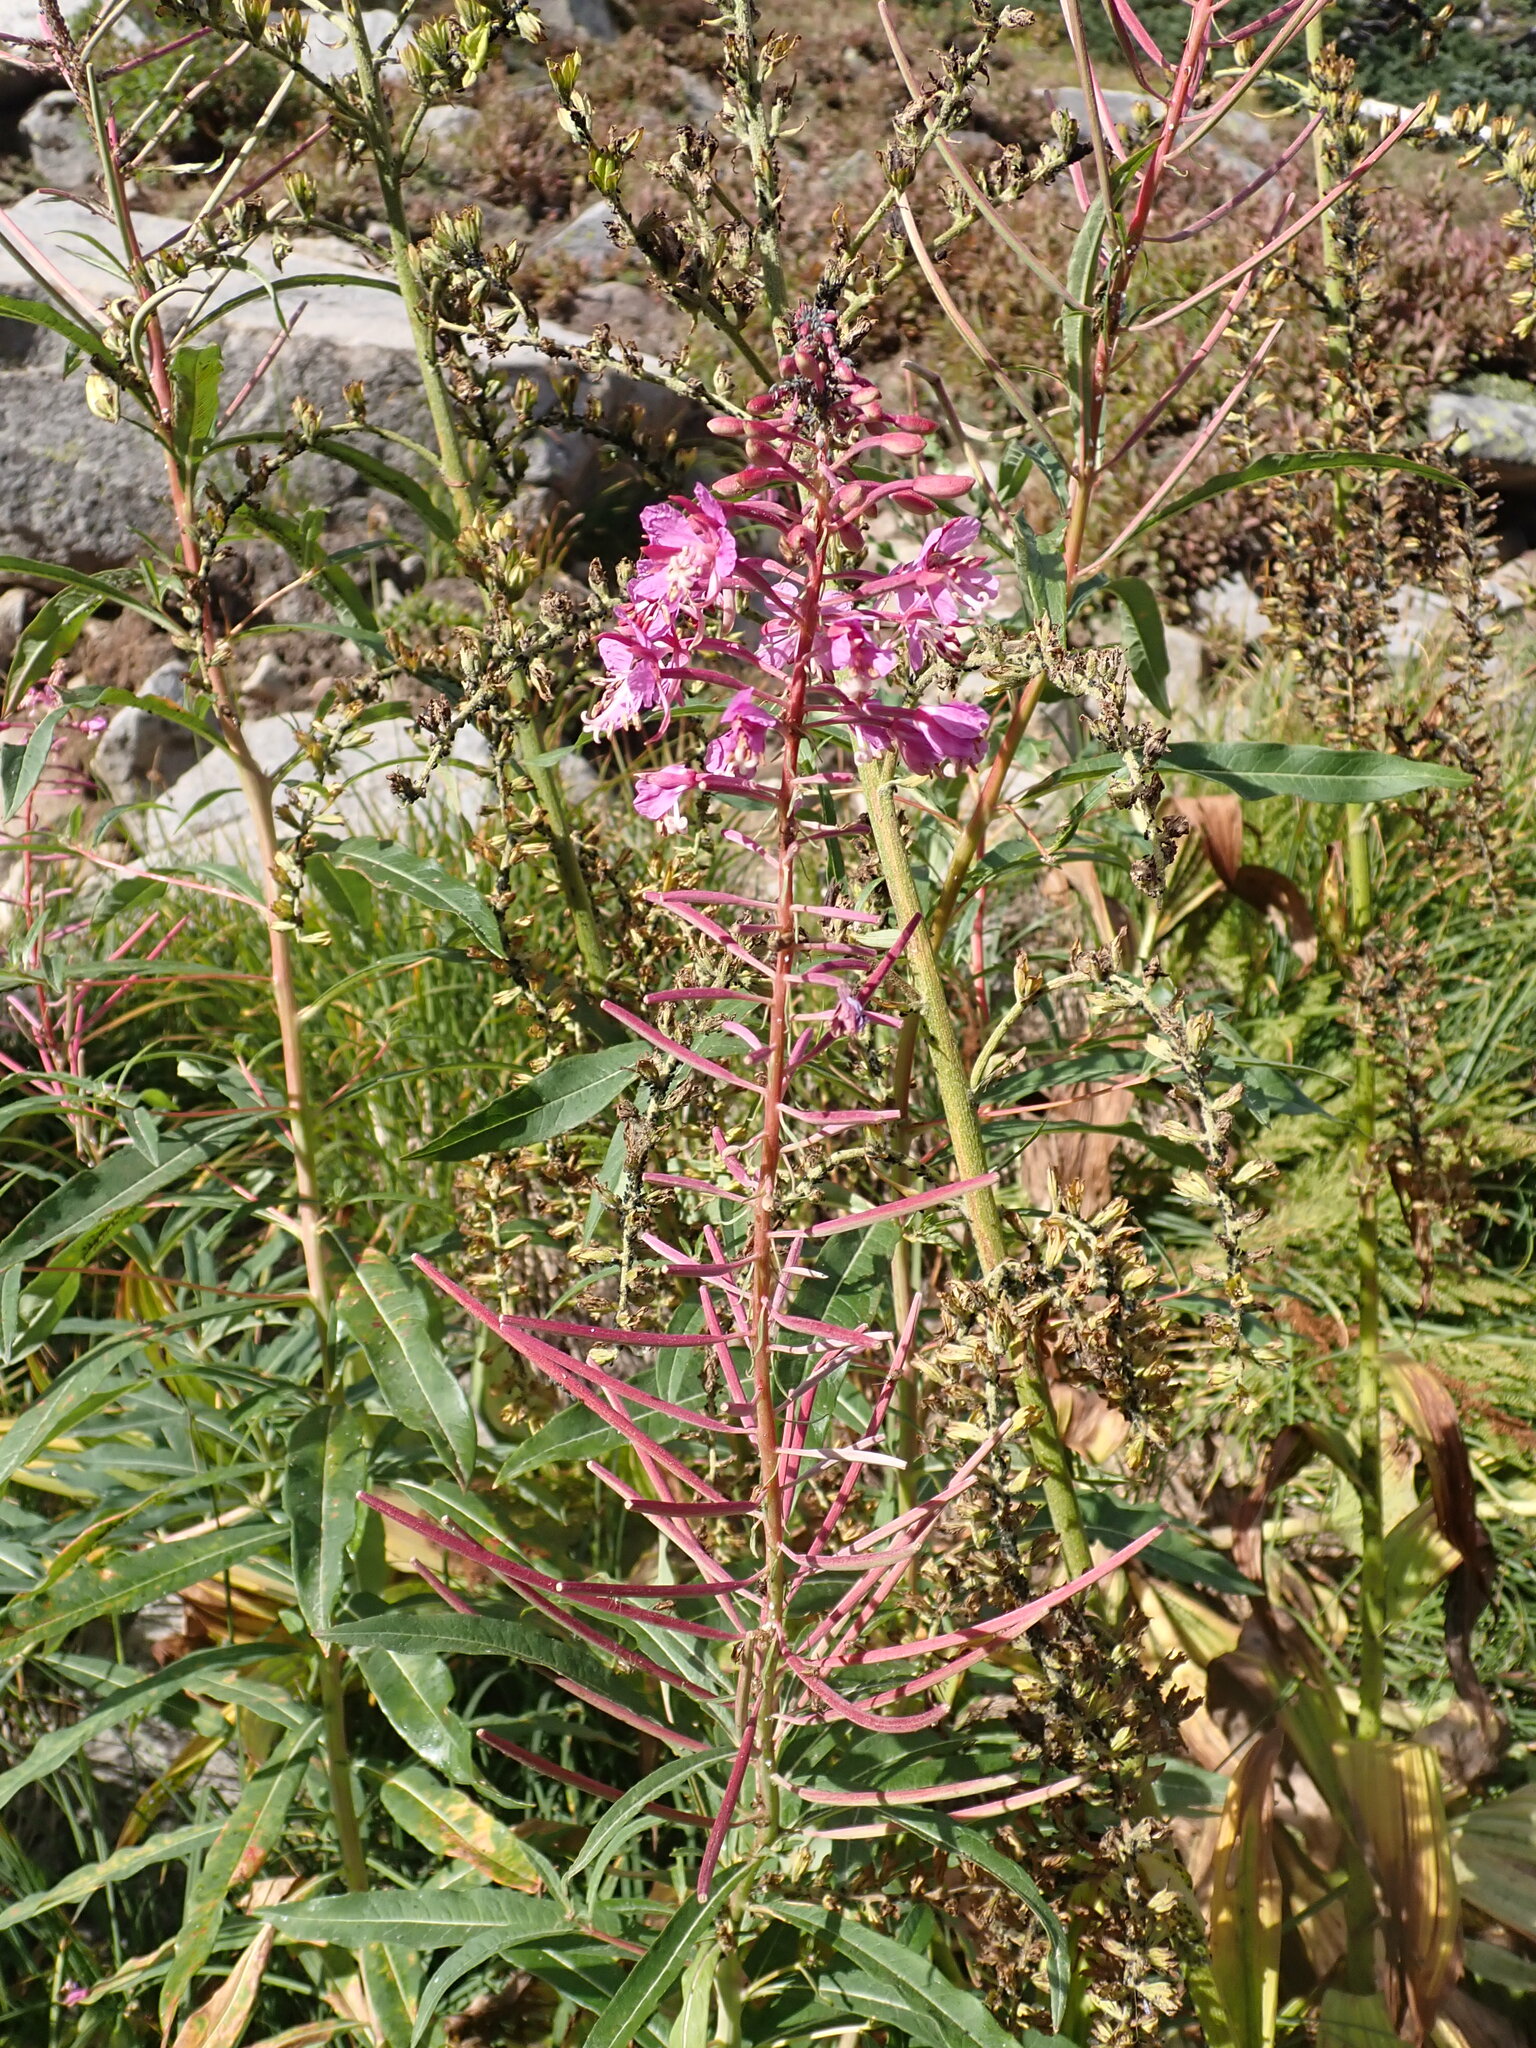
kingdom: Plantae
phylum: Tracheophyta
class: Magnoliopsida
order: Myrtales
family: Onagraceae
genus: Chamaenerion
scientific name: Chamaenerion angustifolium
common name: Fireweed
